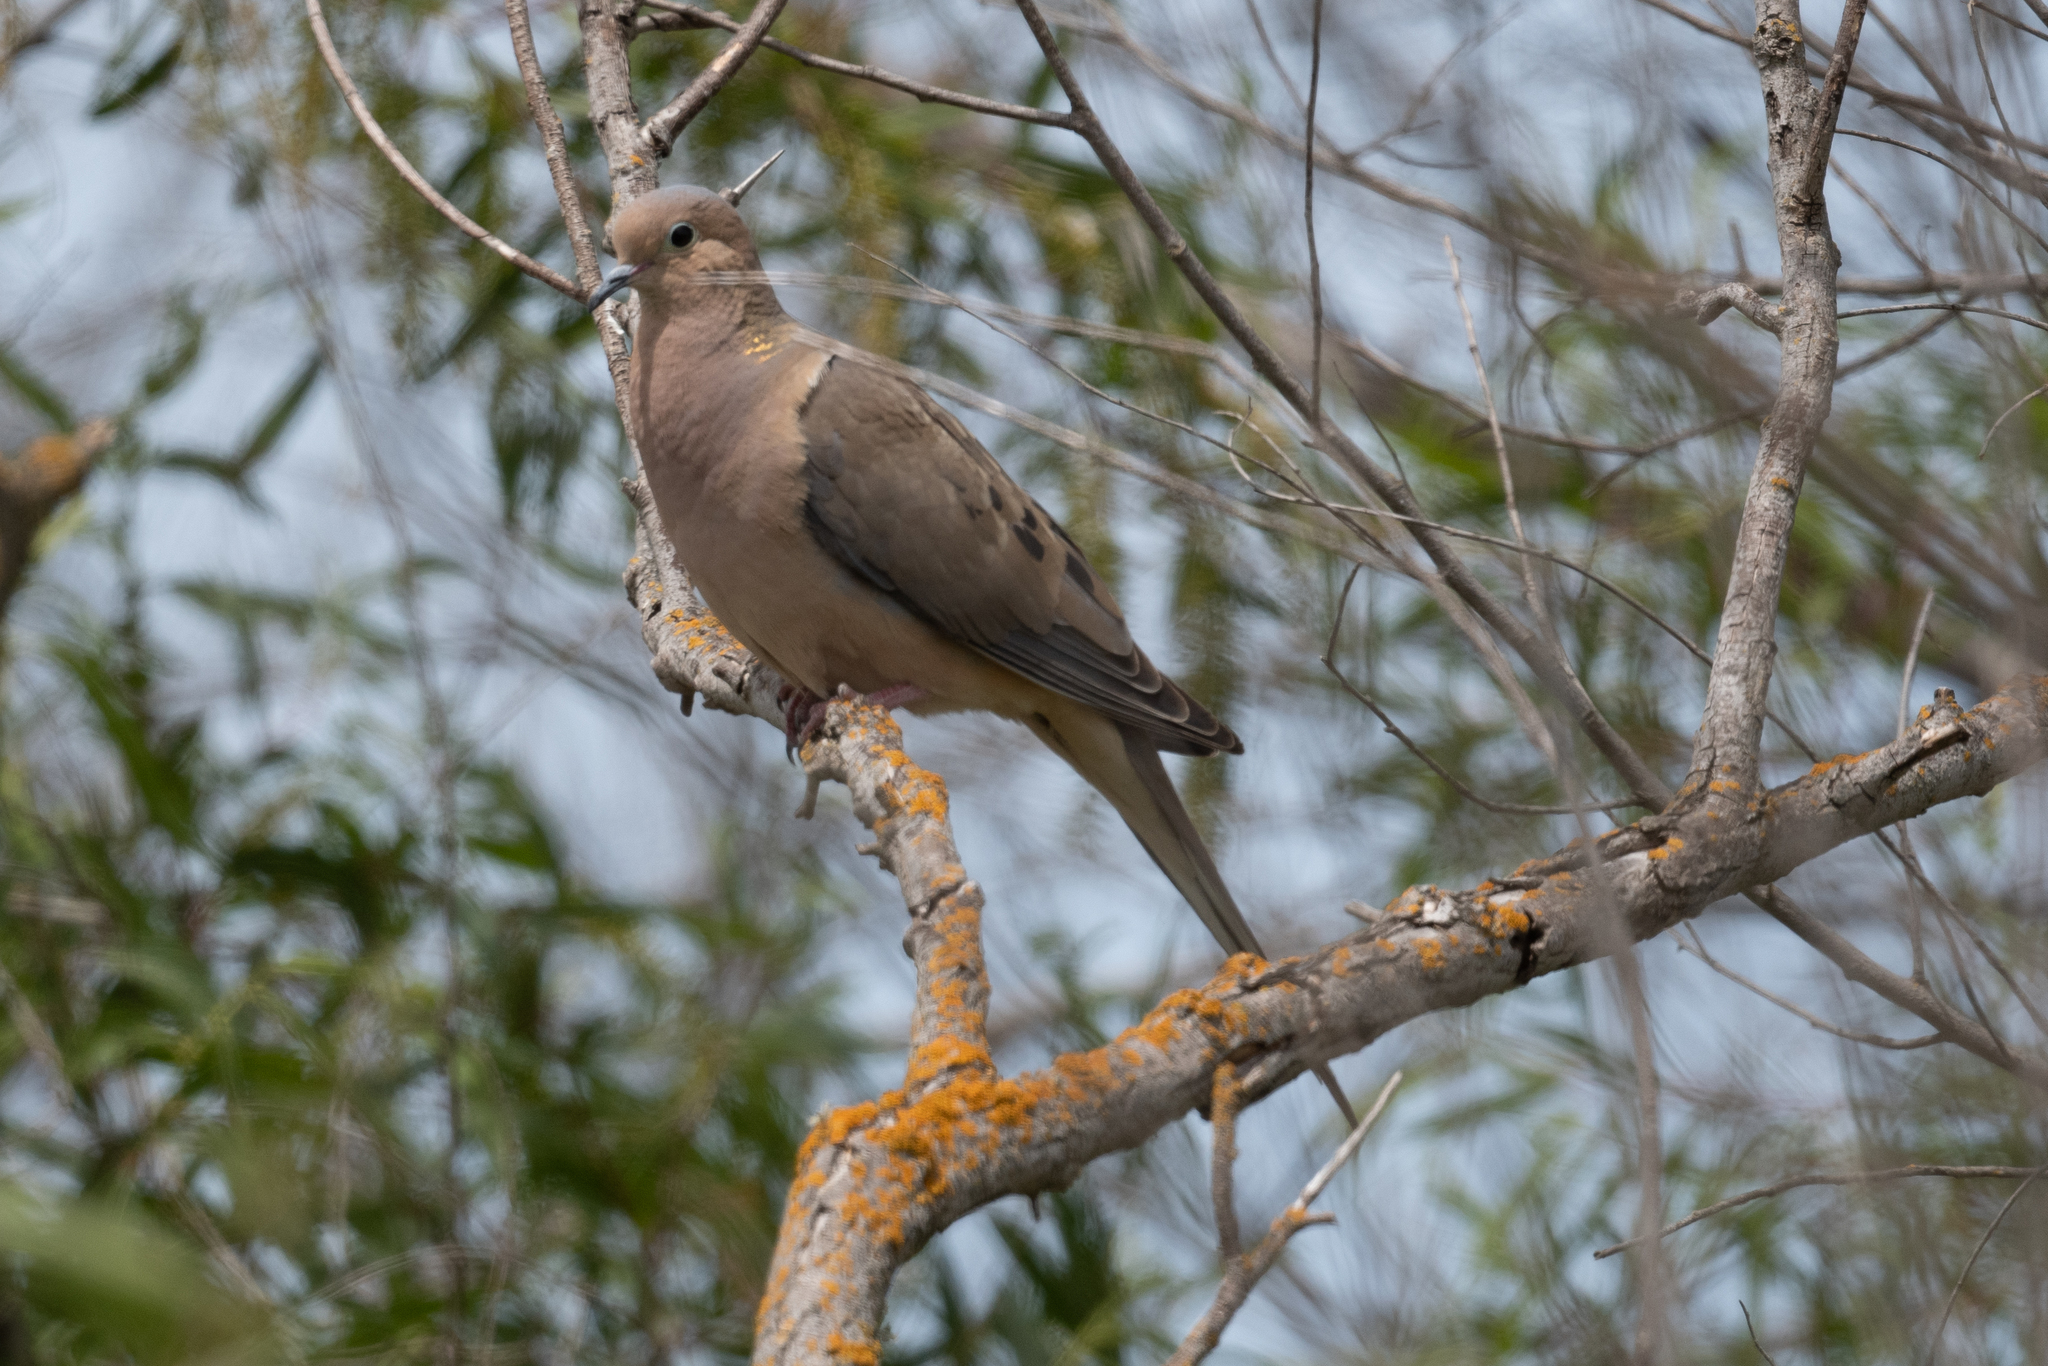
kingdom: Animalia
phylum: Chordata
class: Aves
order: Columbiformes
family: Columbidae
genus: Zenaida
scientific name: Zenaida macroura
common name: Mourning dove
